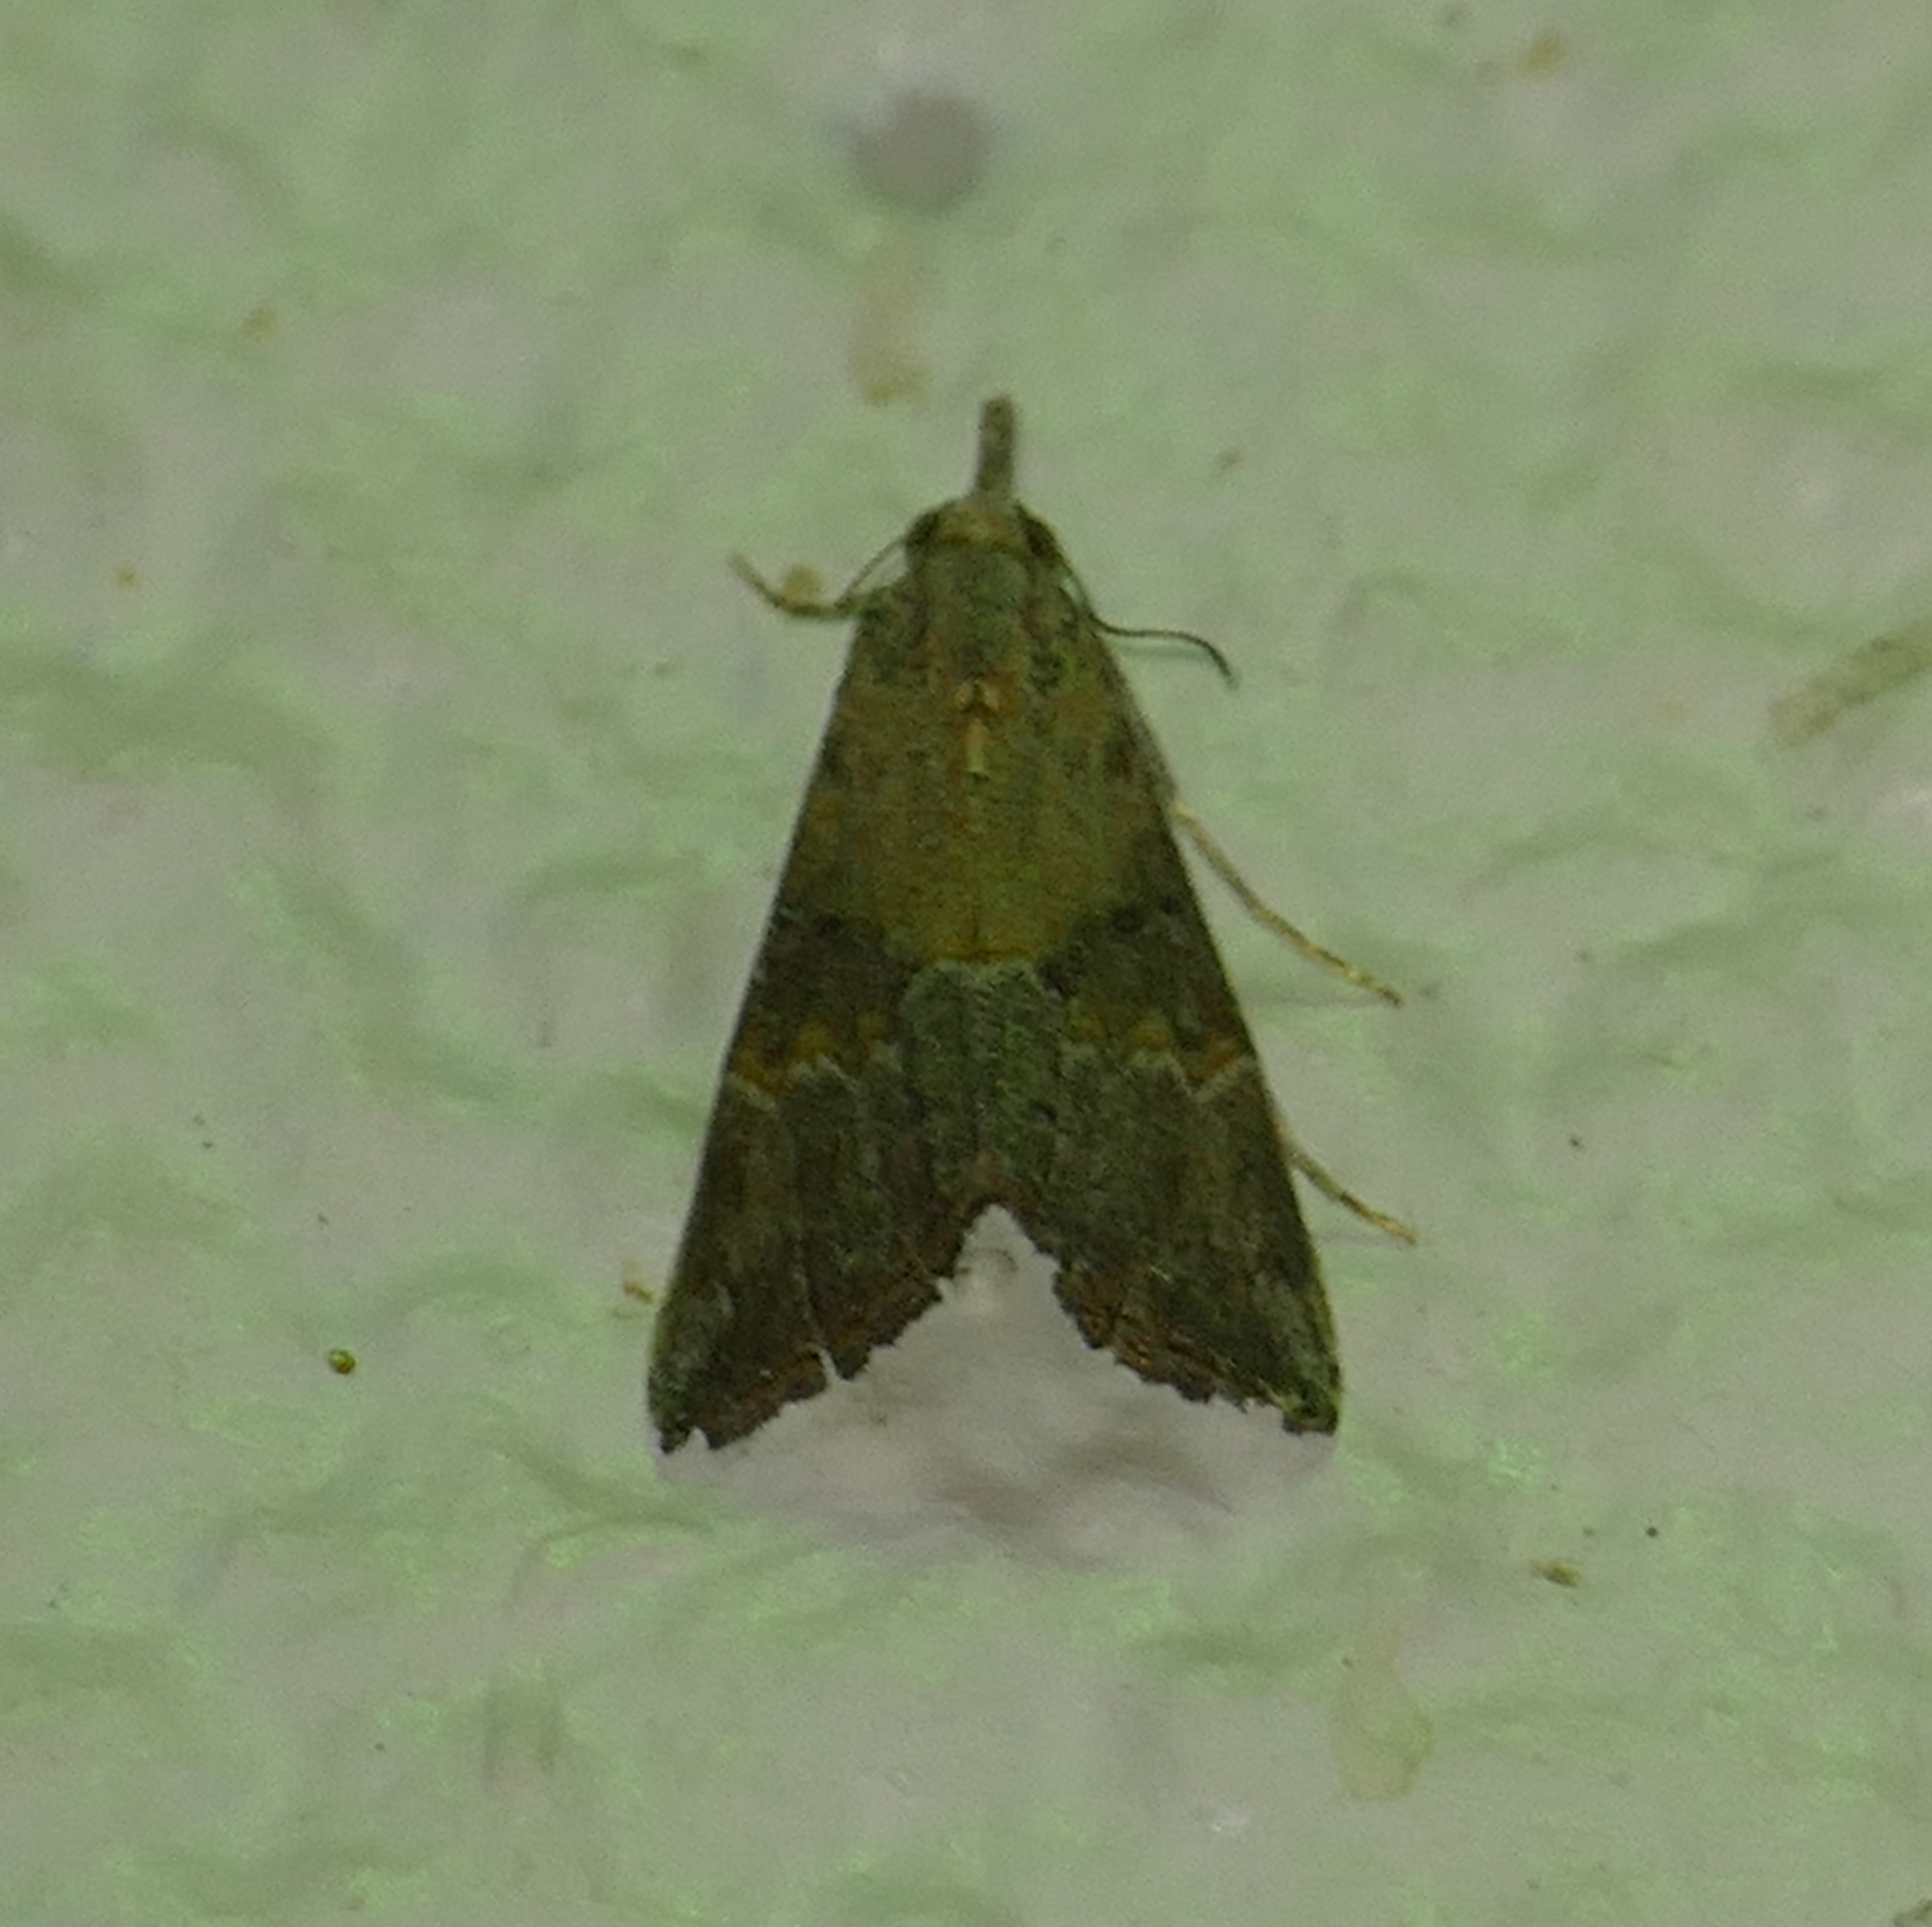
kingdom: Animalia
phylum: Arthropoda
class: Insecta
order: Lepidoptera
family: Erebidae
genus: Hypena
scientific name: Hypena minualis
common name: Sooty snout
